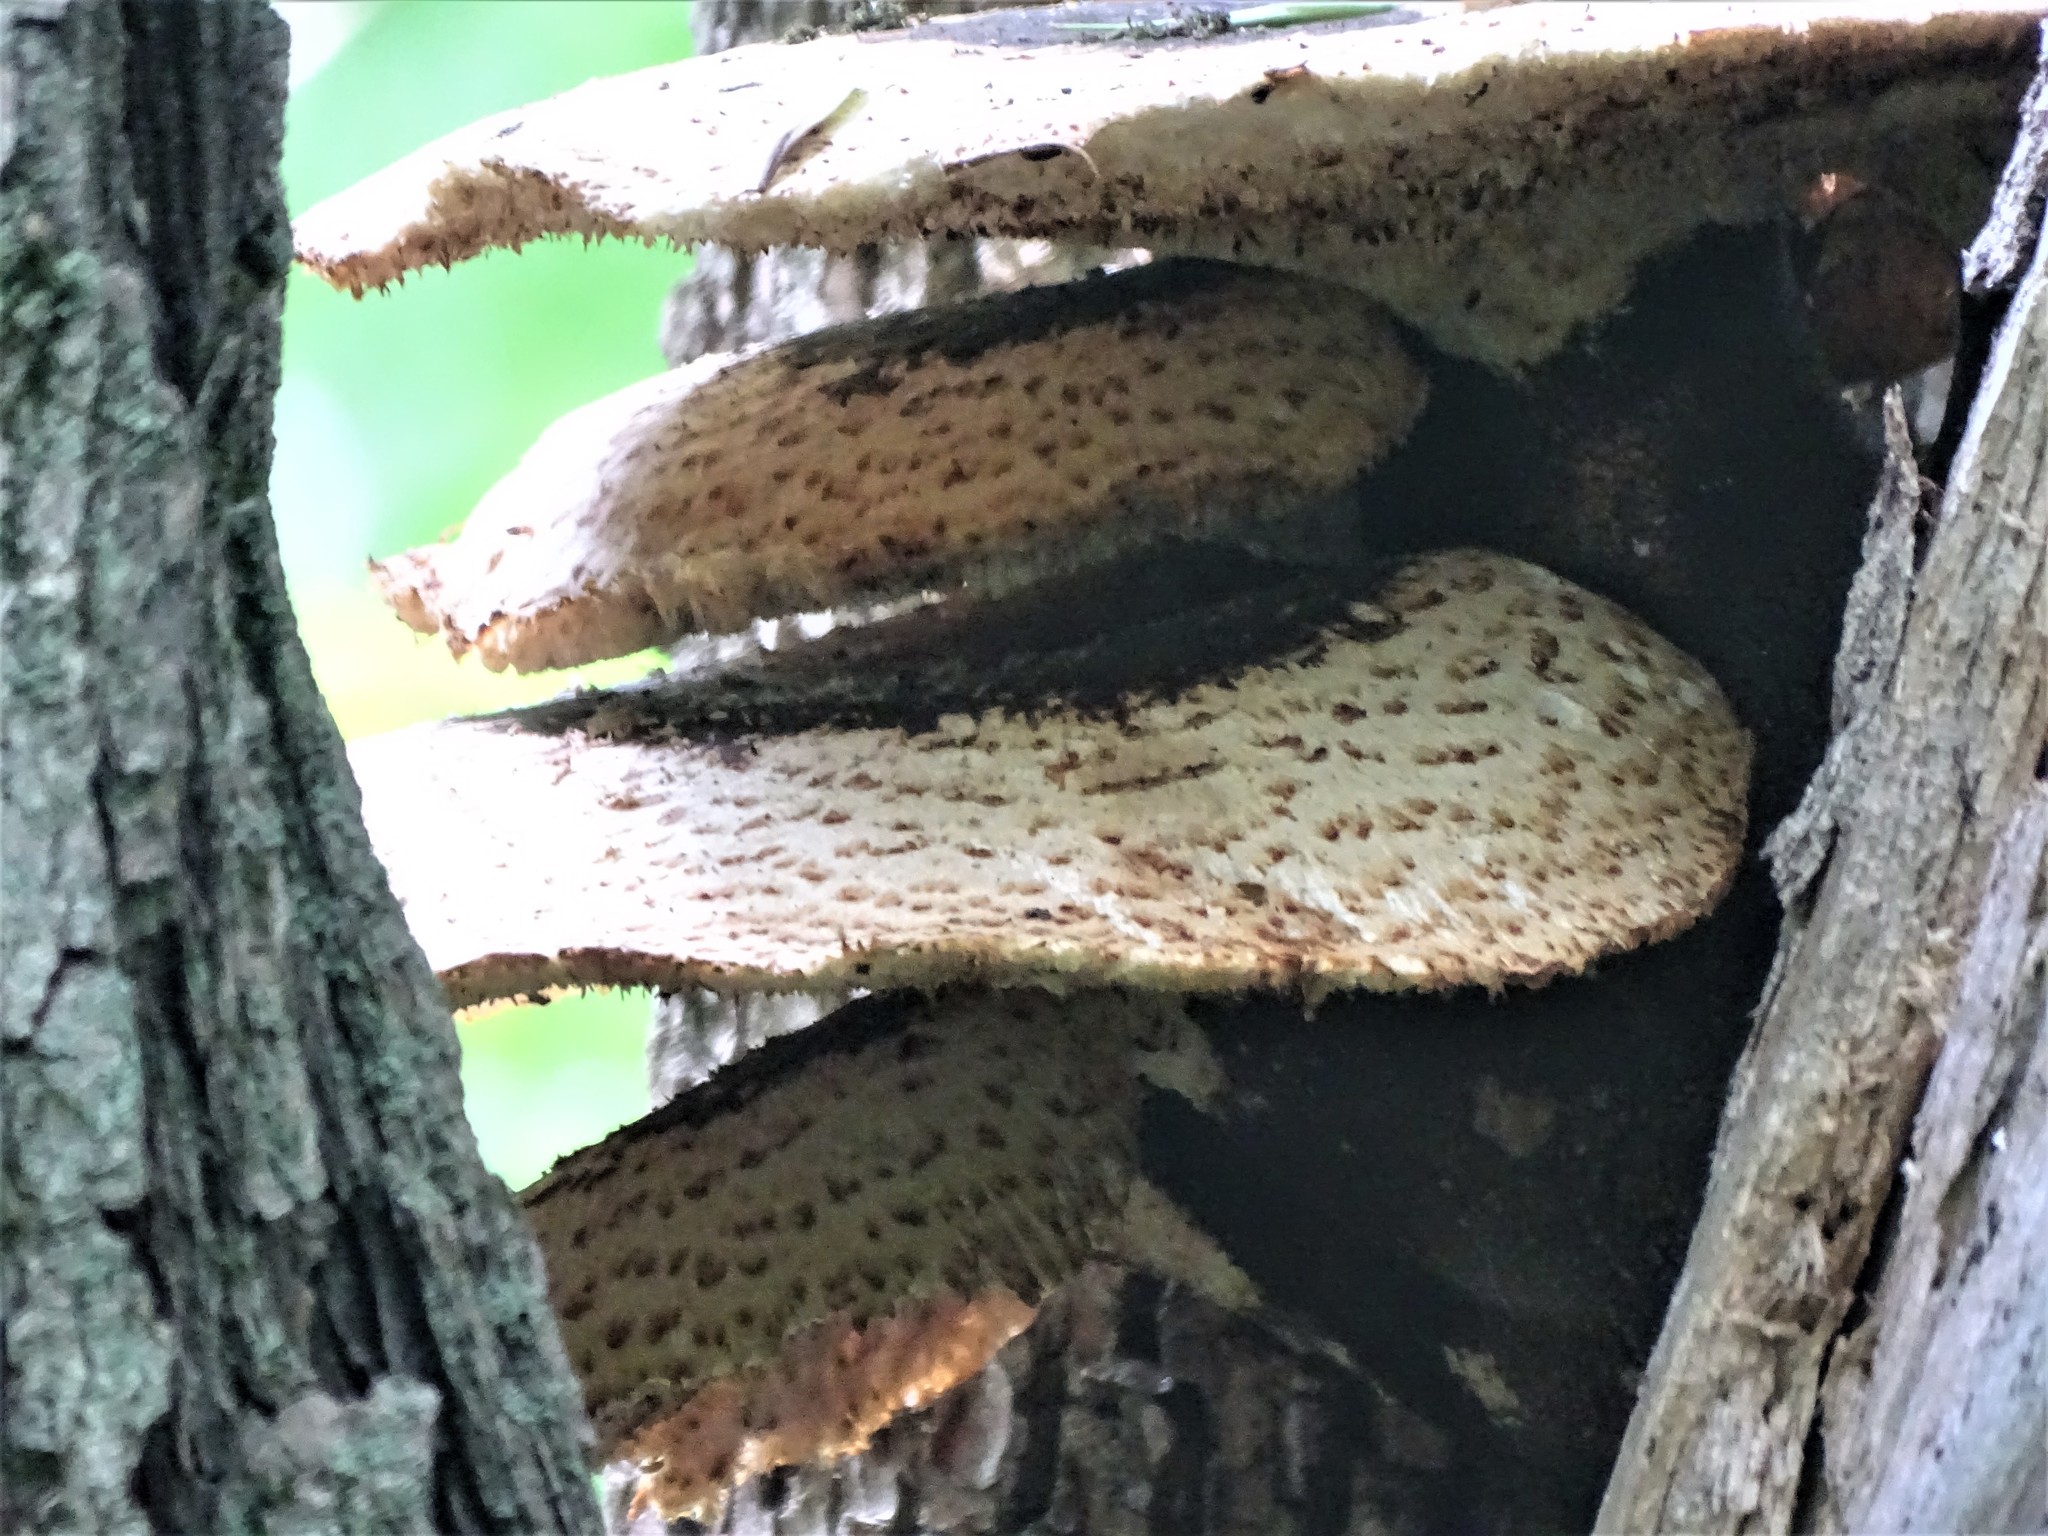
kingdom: Fungi
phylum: Basidiomycota
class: Agaricomycetes
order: Polyporales
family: Polyporaceae
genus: Cerioporus
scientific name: Cerioporus squamosus
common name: Dryad's saddle
